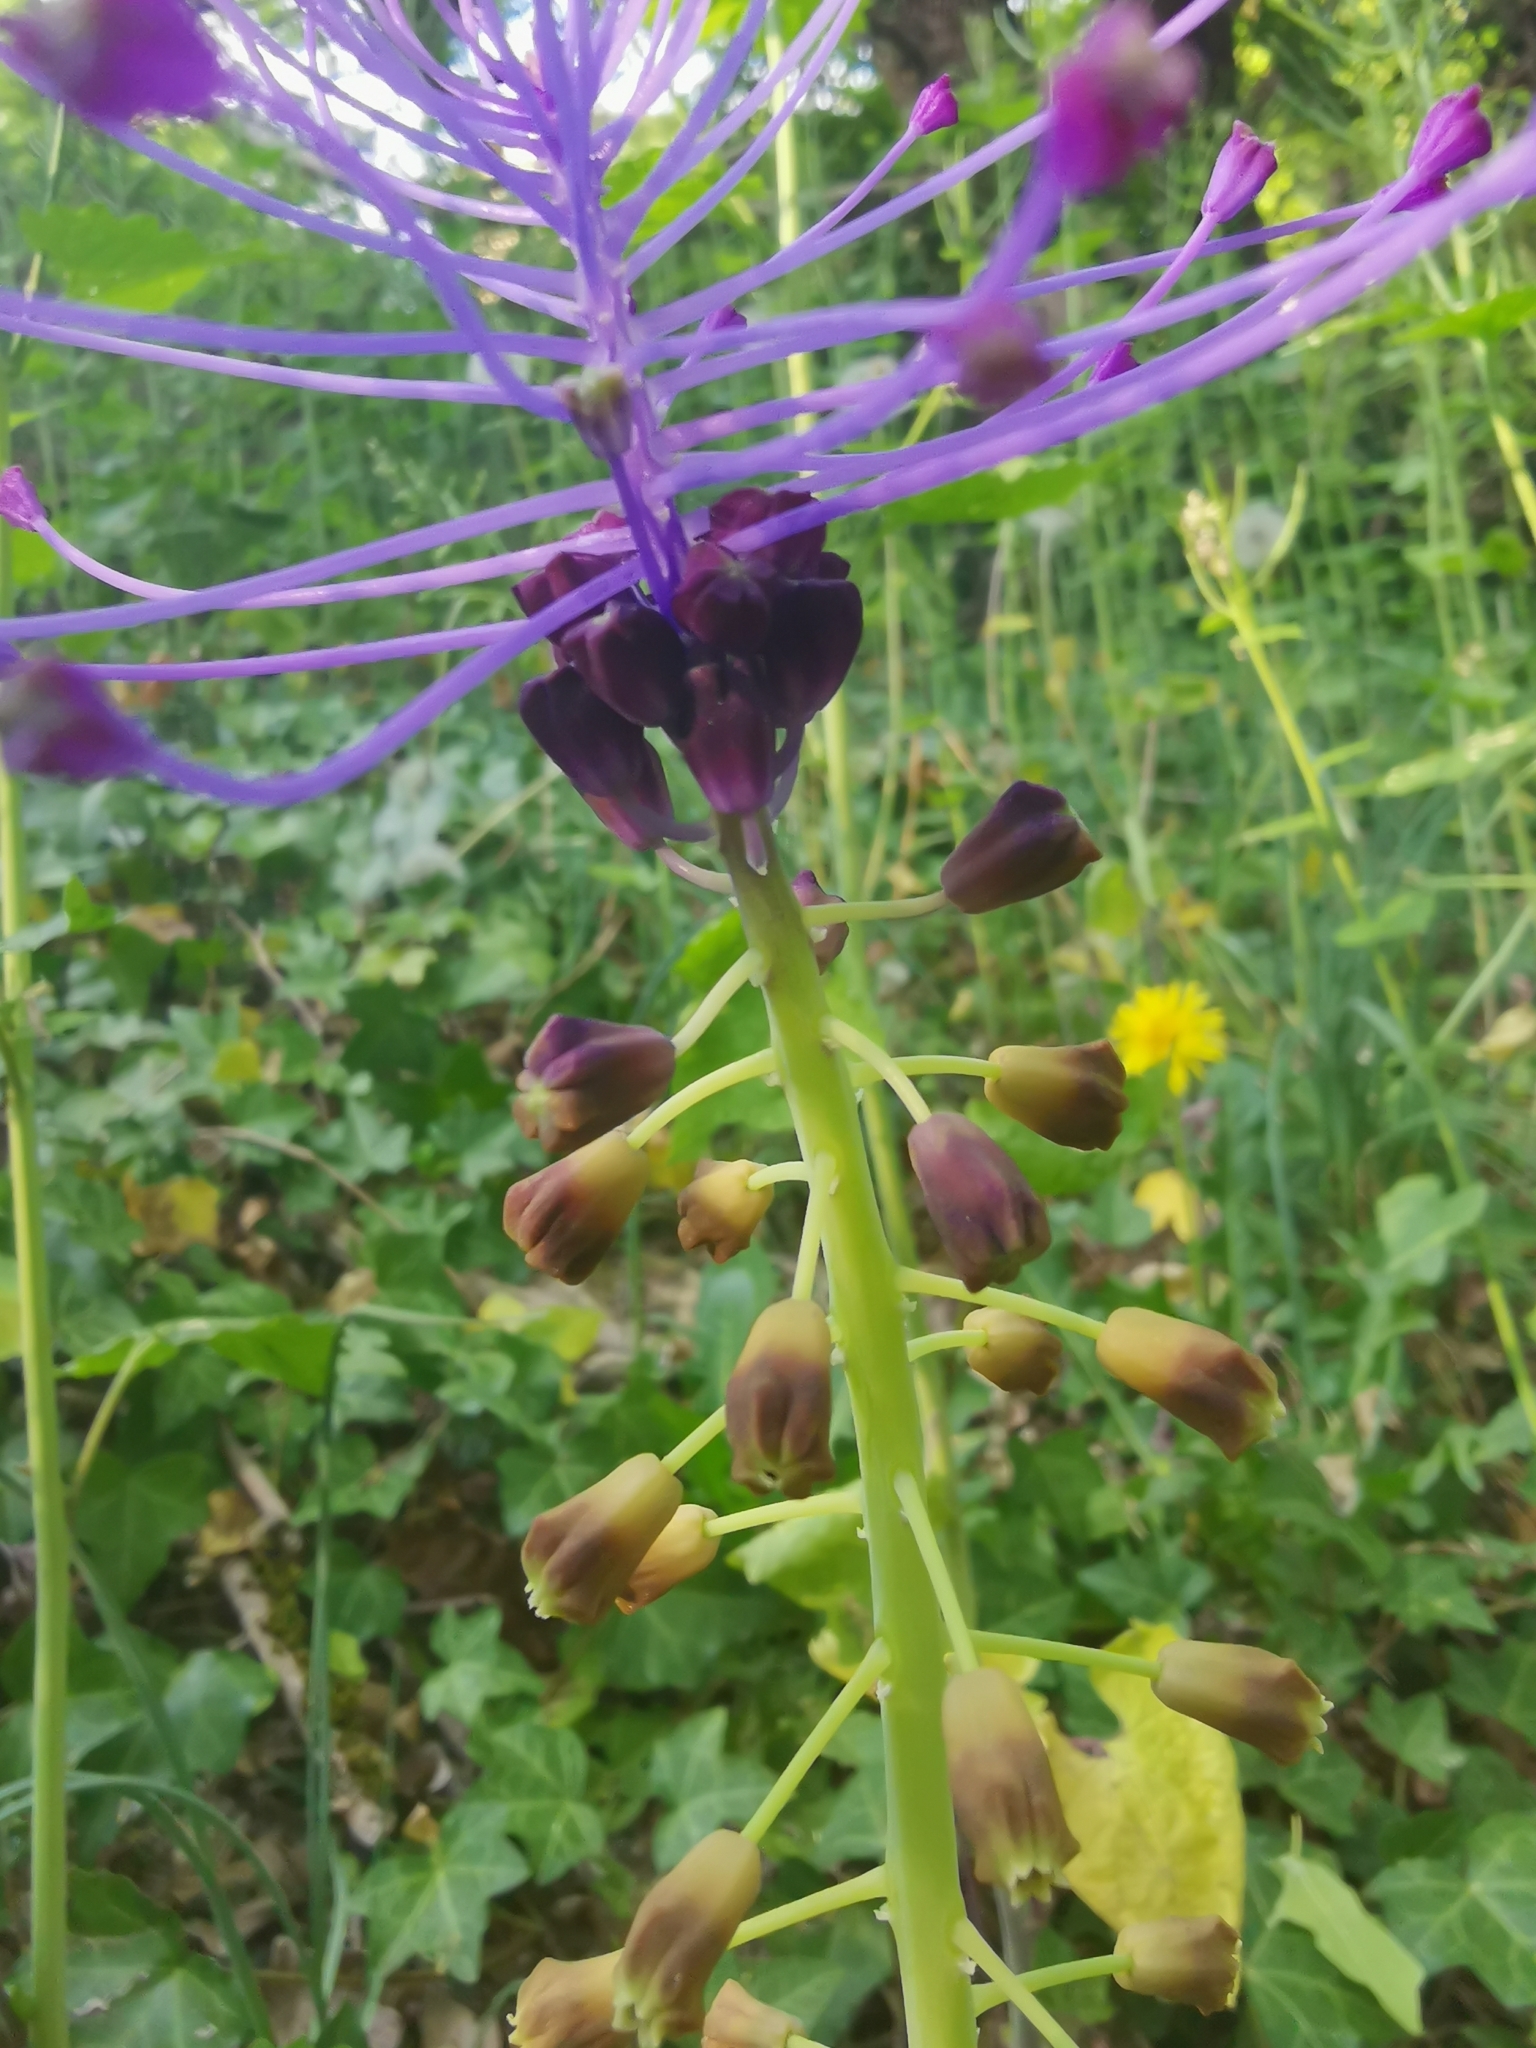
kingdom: Plantae
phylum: Tracheophyta
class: Liliopsida
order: Asparagales
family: Asparagaceae
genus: Muscari
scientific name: Muscari comosum
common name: Tassel hyacinth
